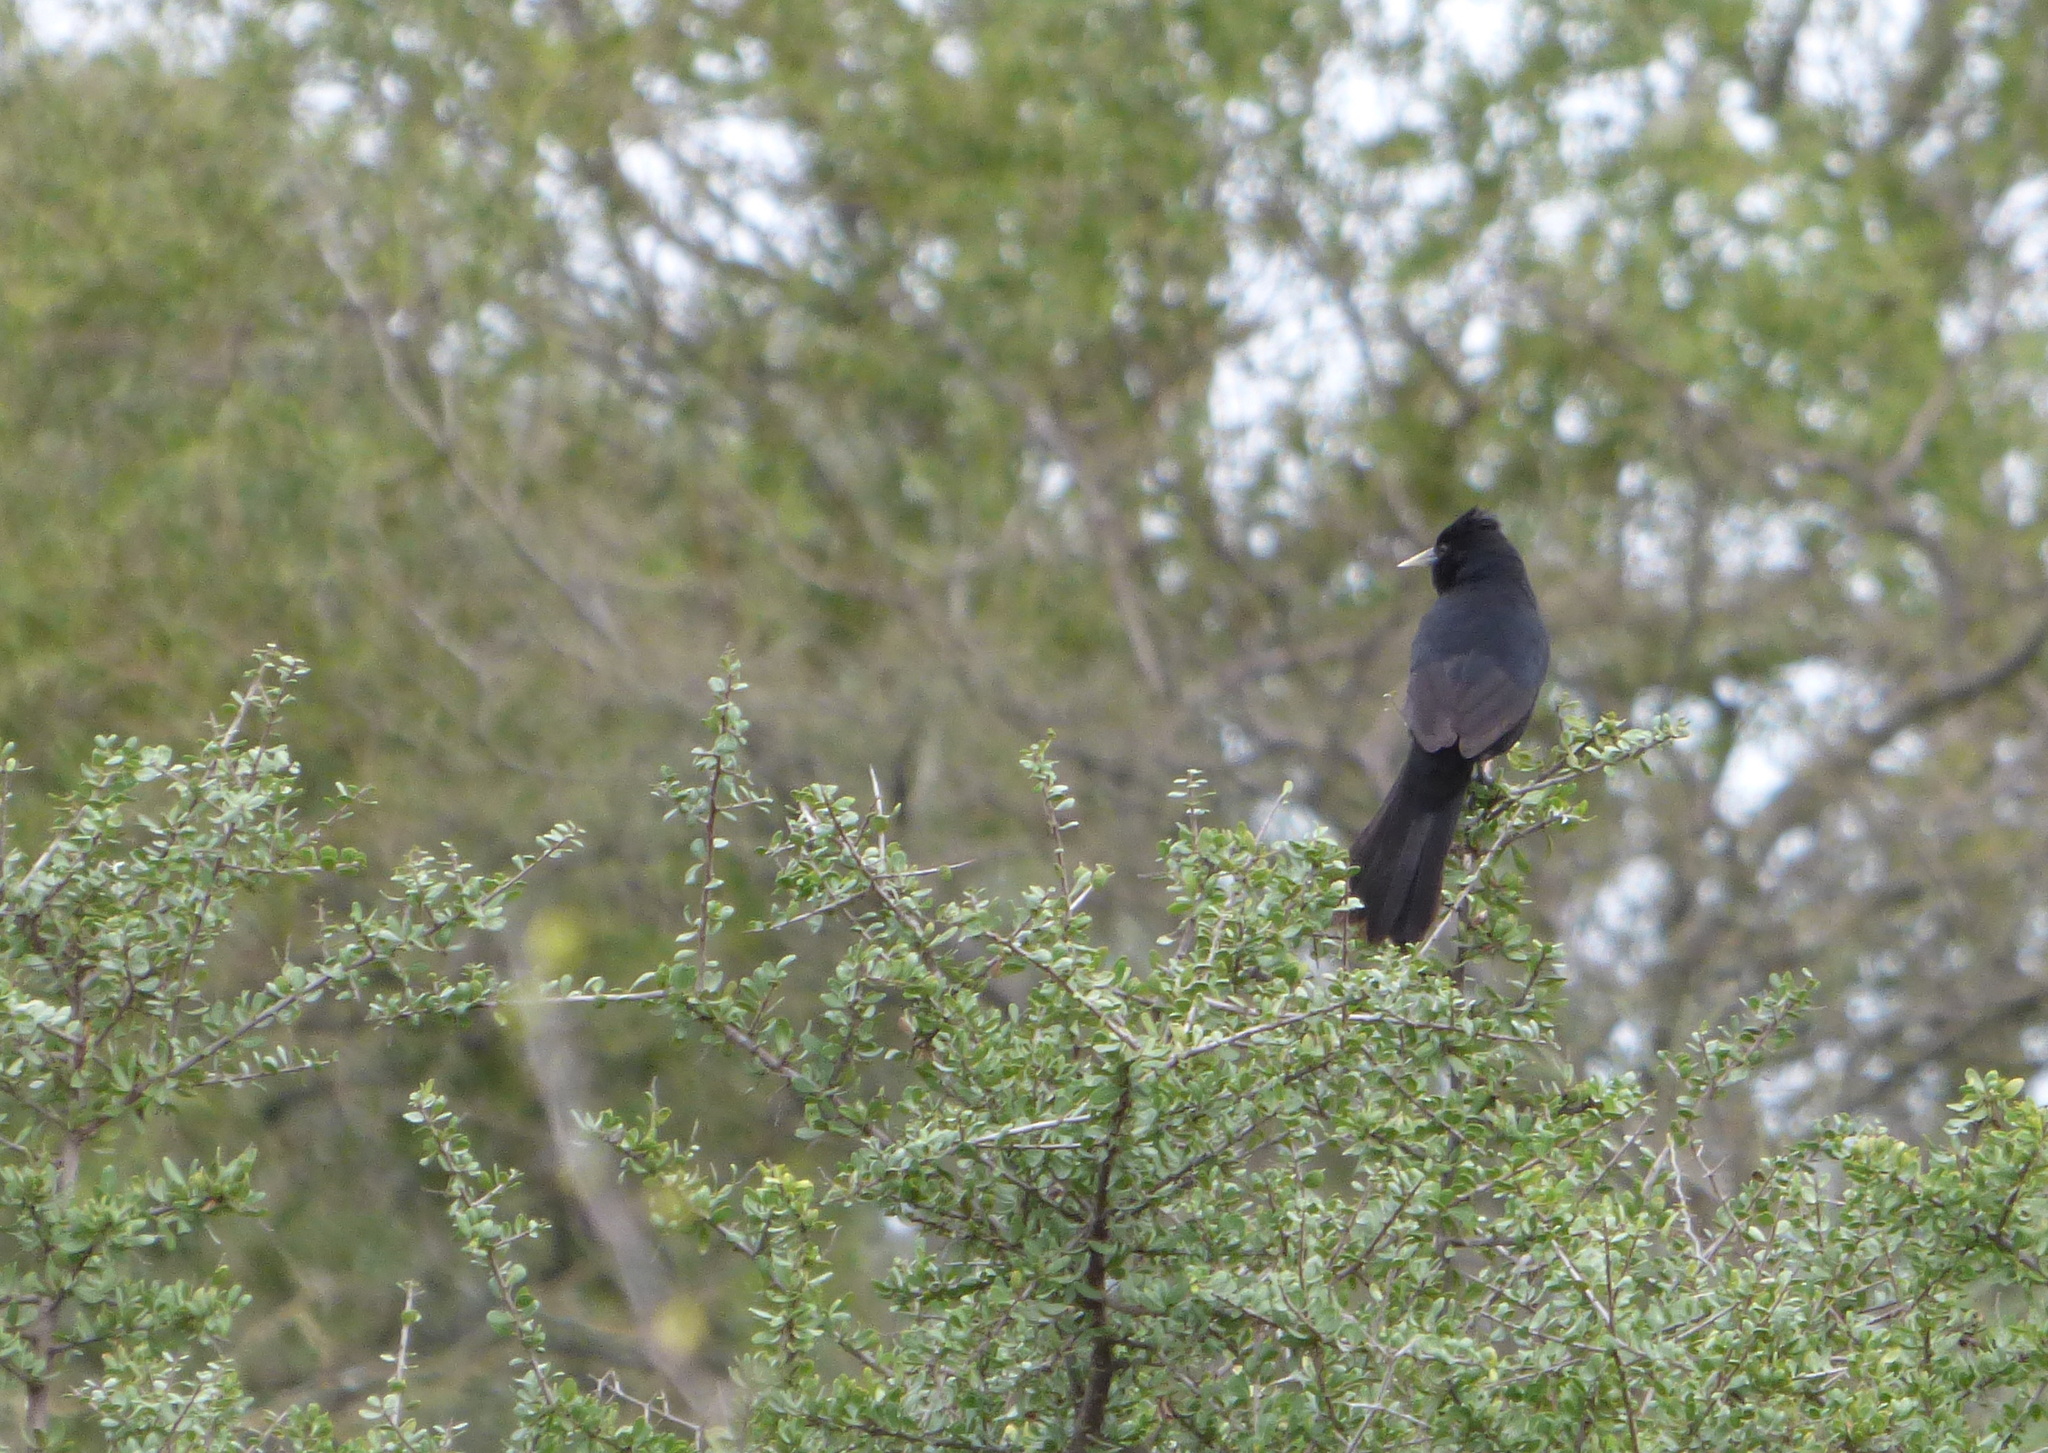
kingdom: Animalia
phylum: Chordata
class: Aves
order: Passeriformes
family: Icteridae
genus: Cacicus
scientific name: Cacicus solitarius
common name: Solitary cacique
